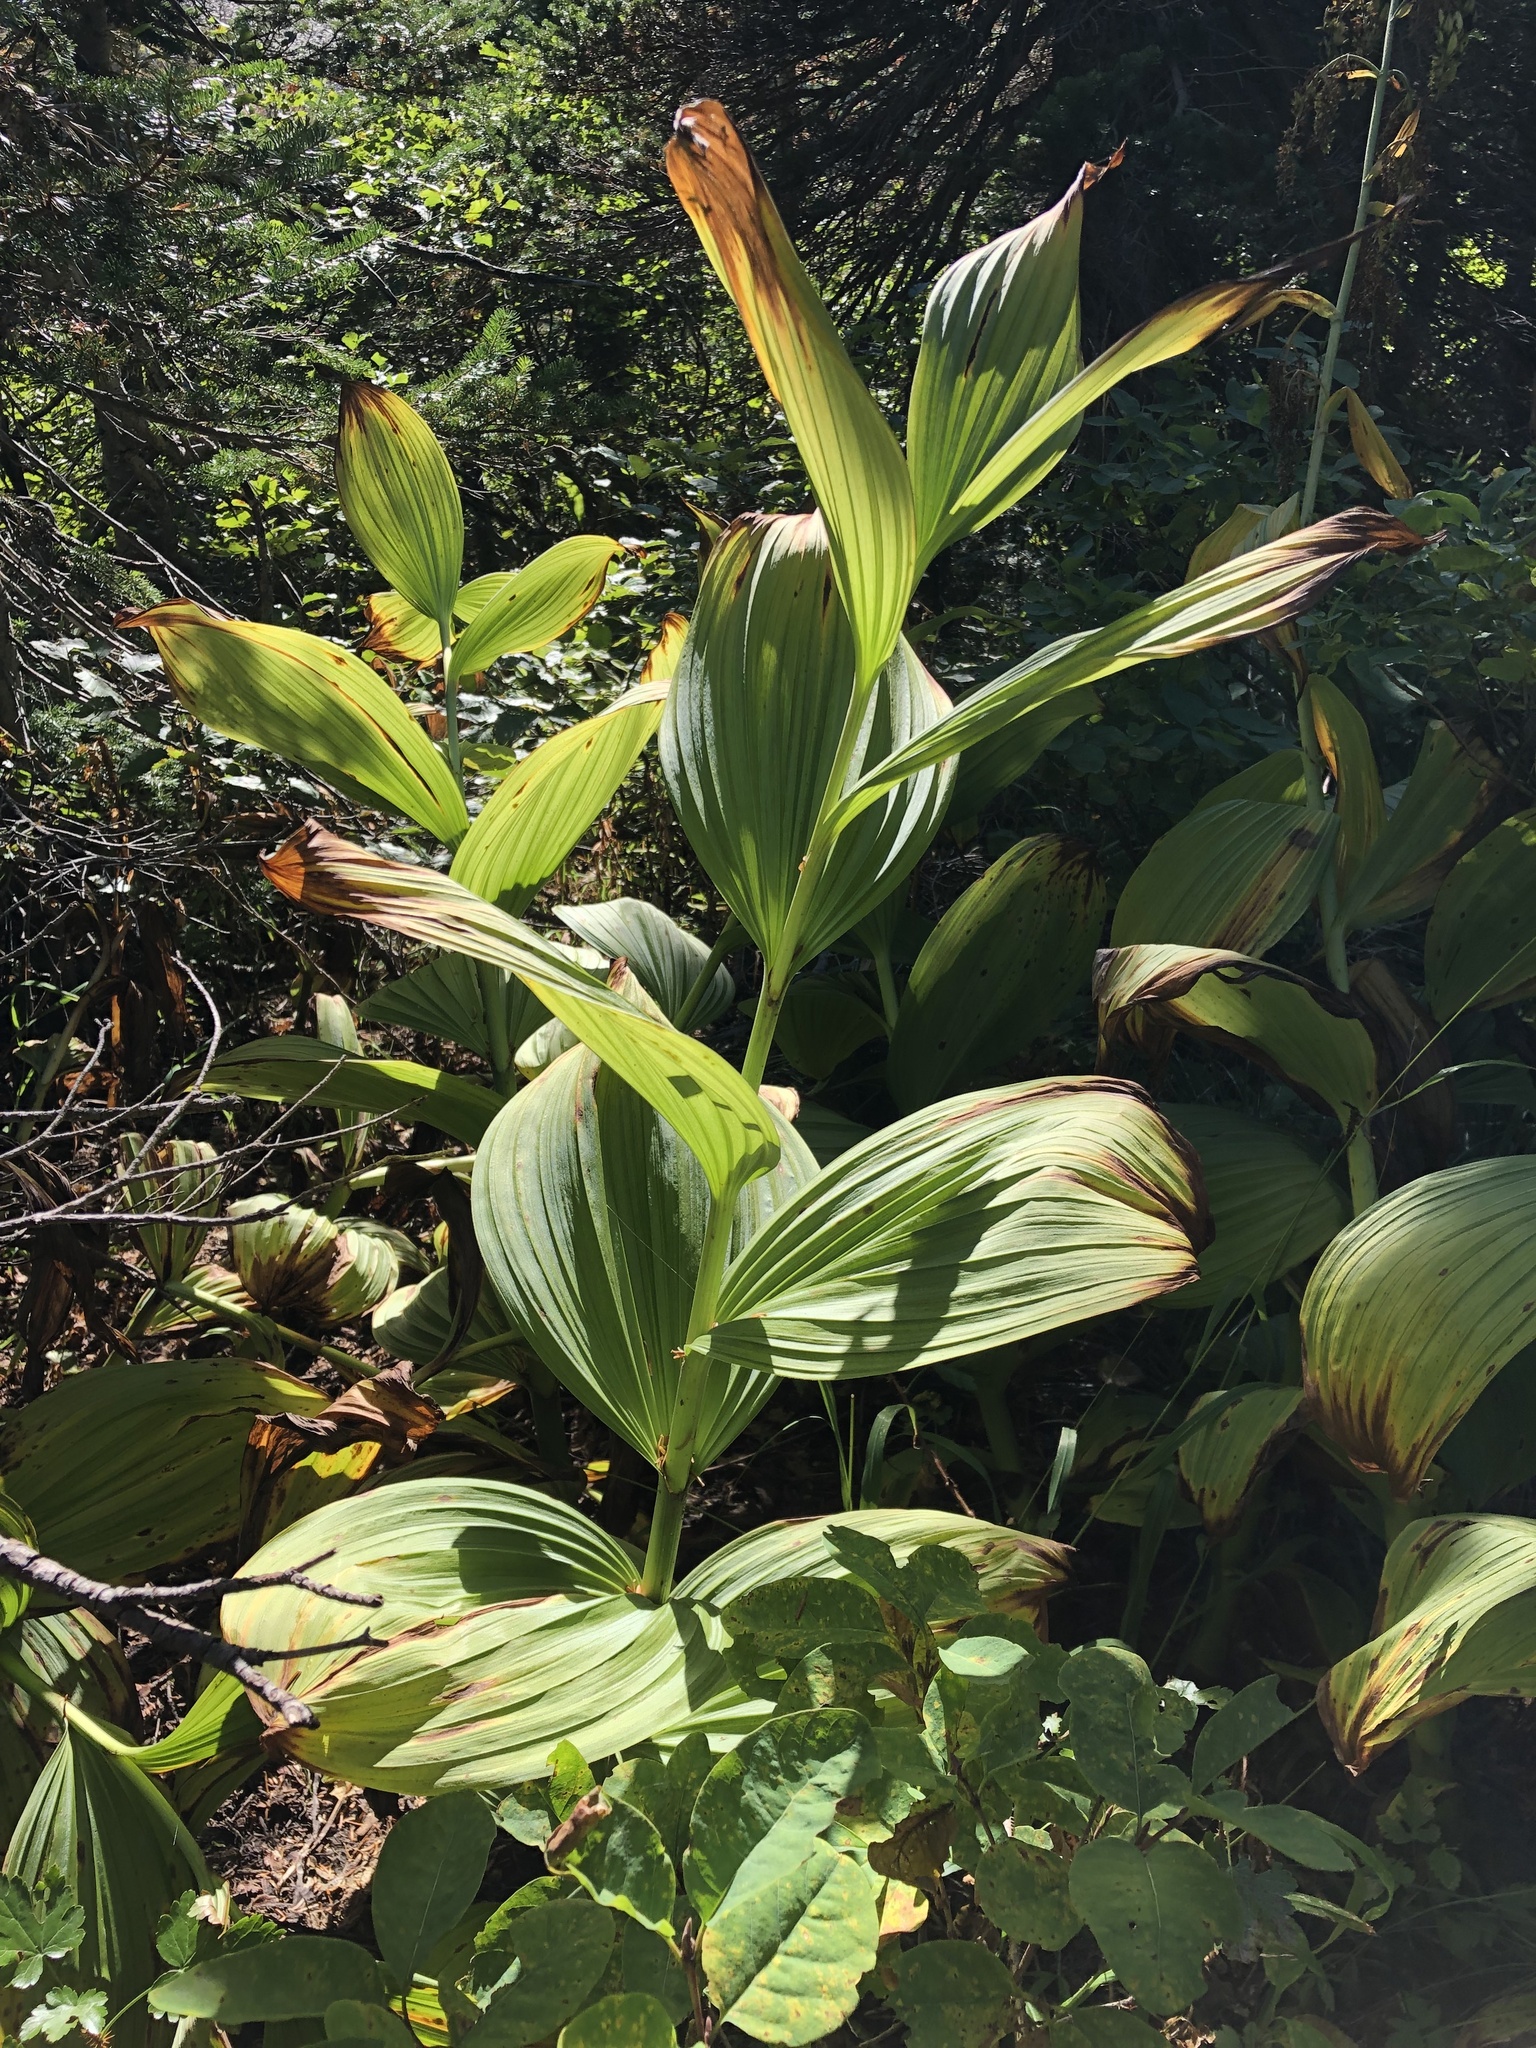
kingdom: Plantae
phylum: Tracheophyta
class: Liliopsida
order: Liliales
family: Melanthiaceae
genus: Veratrum
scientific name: Veratrum viride
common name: American false hellebore
